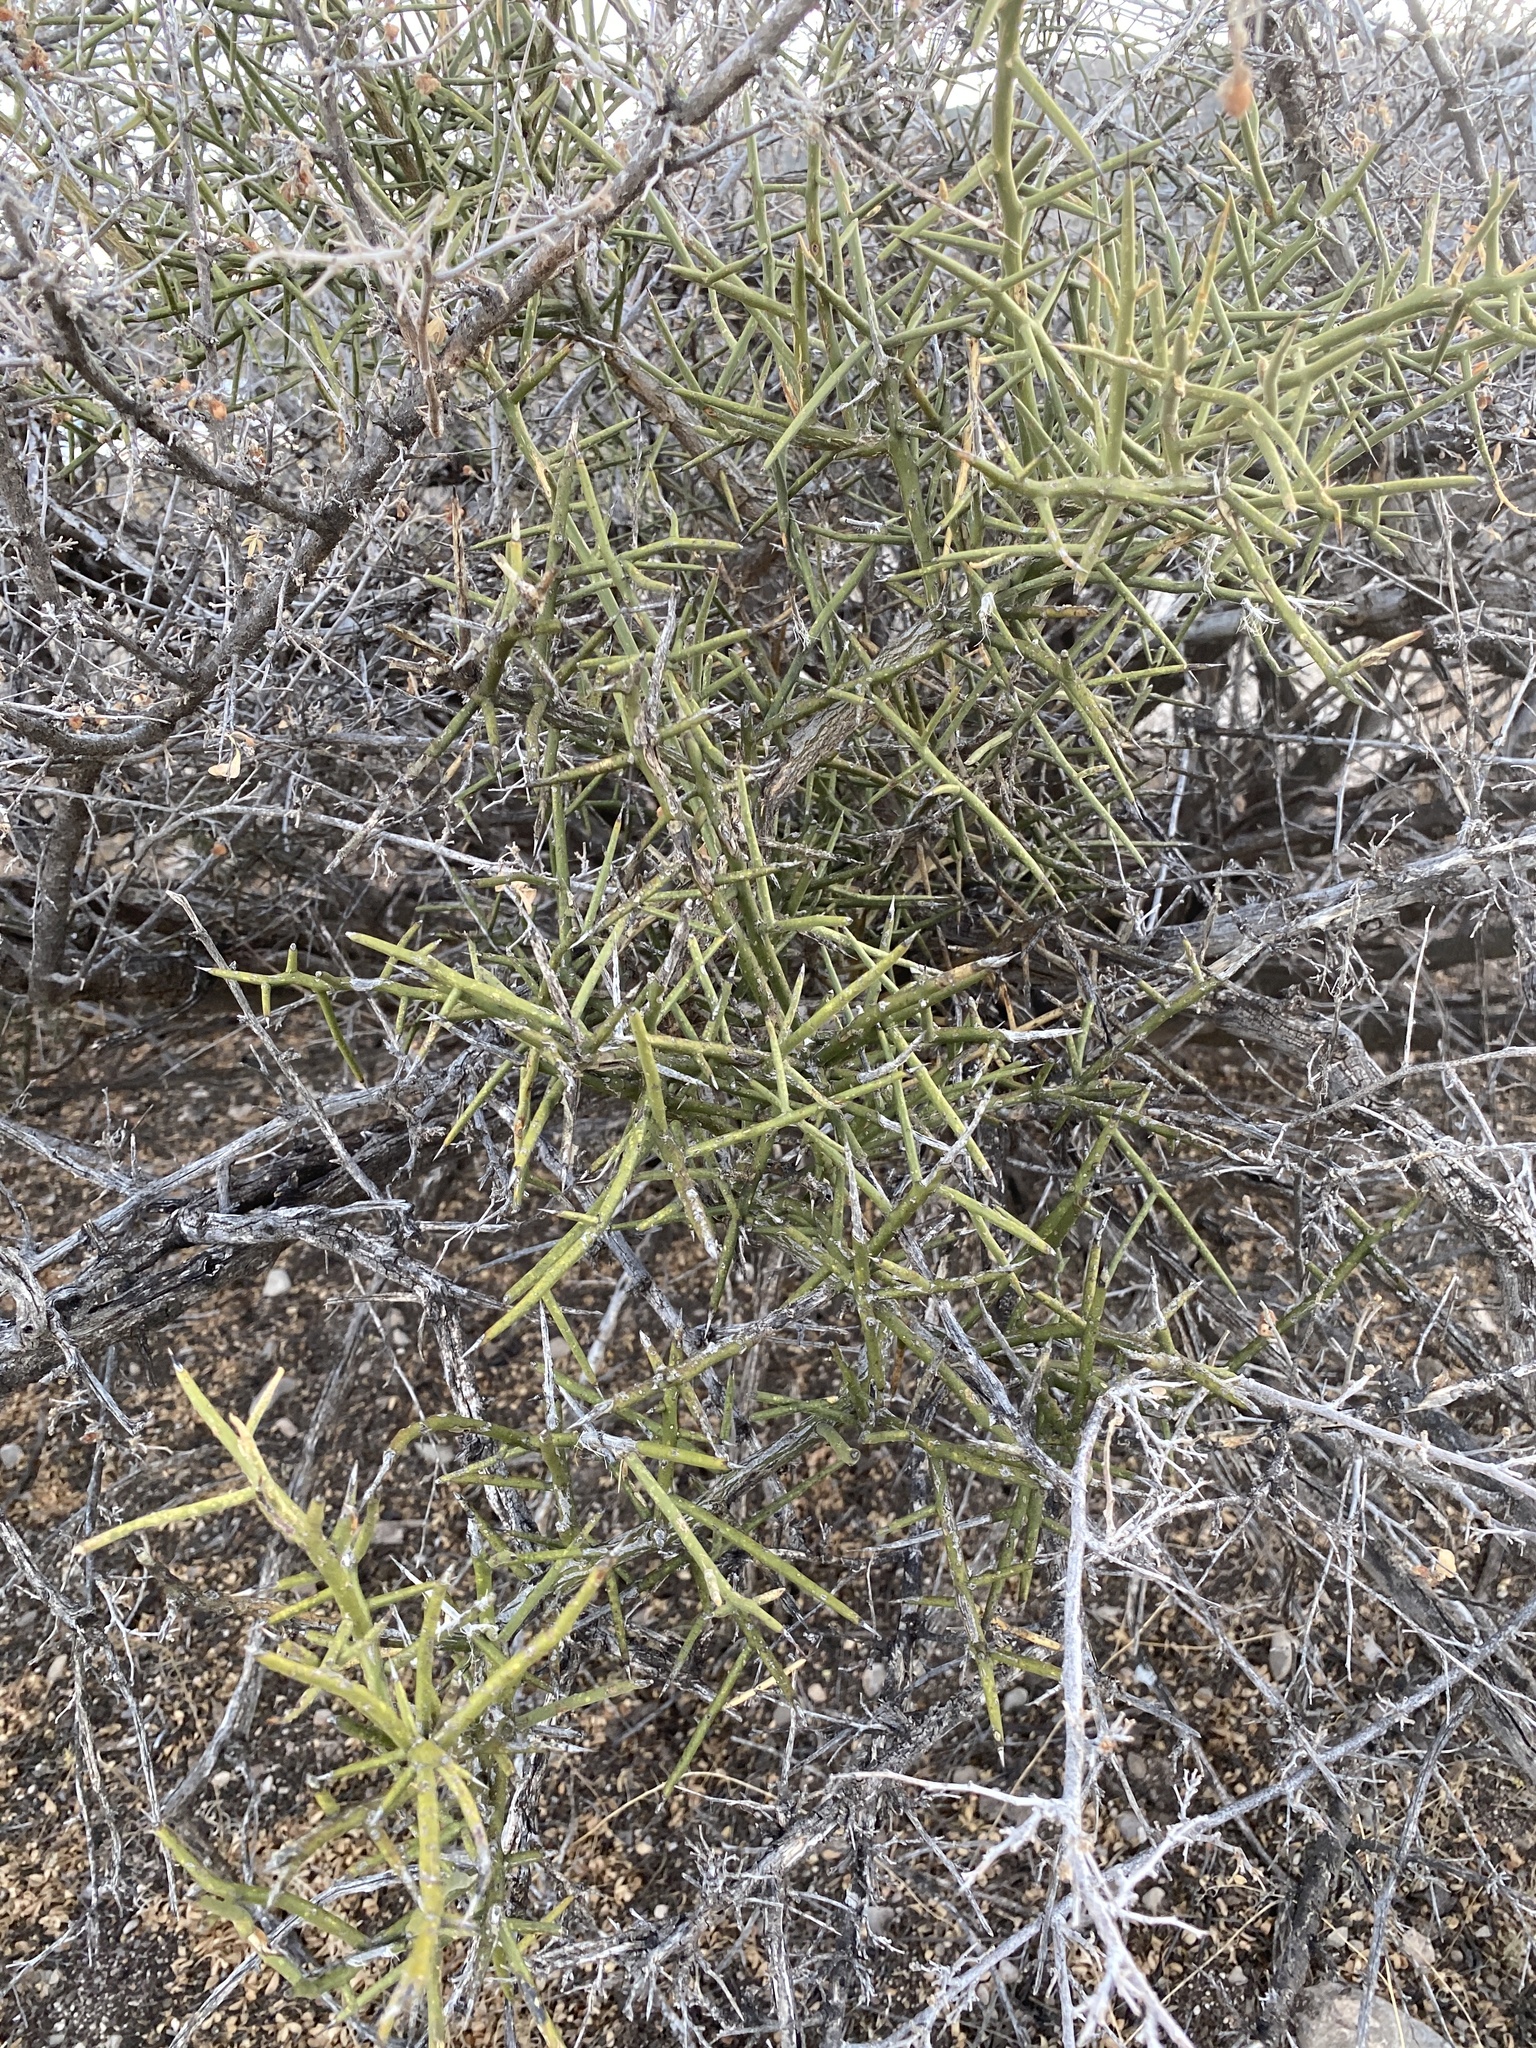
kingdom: Plantae
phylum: Tracheophyta
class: Magnoliopsida
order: Brassicales
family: Koeberliniaceae
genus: Koeberlinia
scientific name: Koeberlinia spinosa
